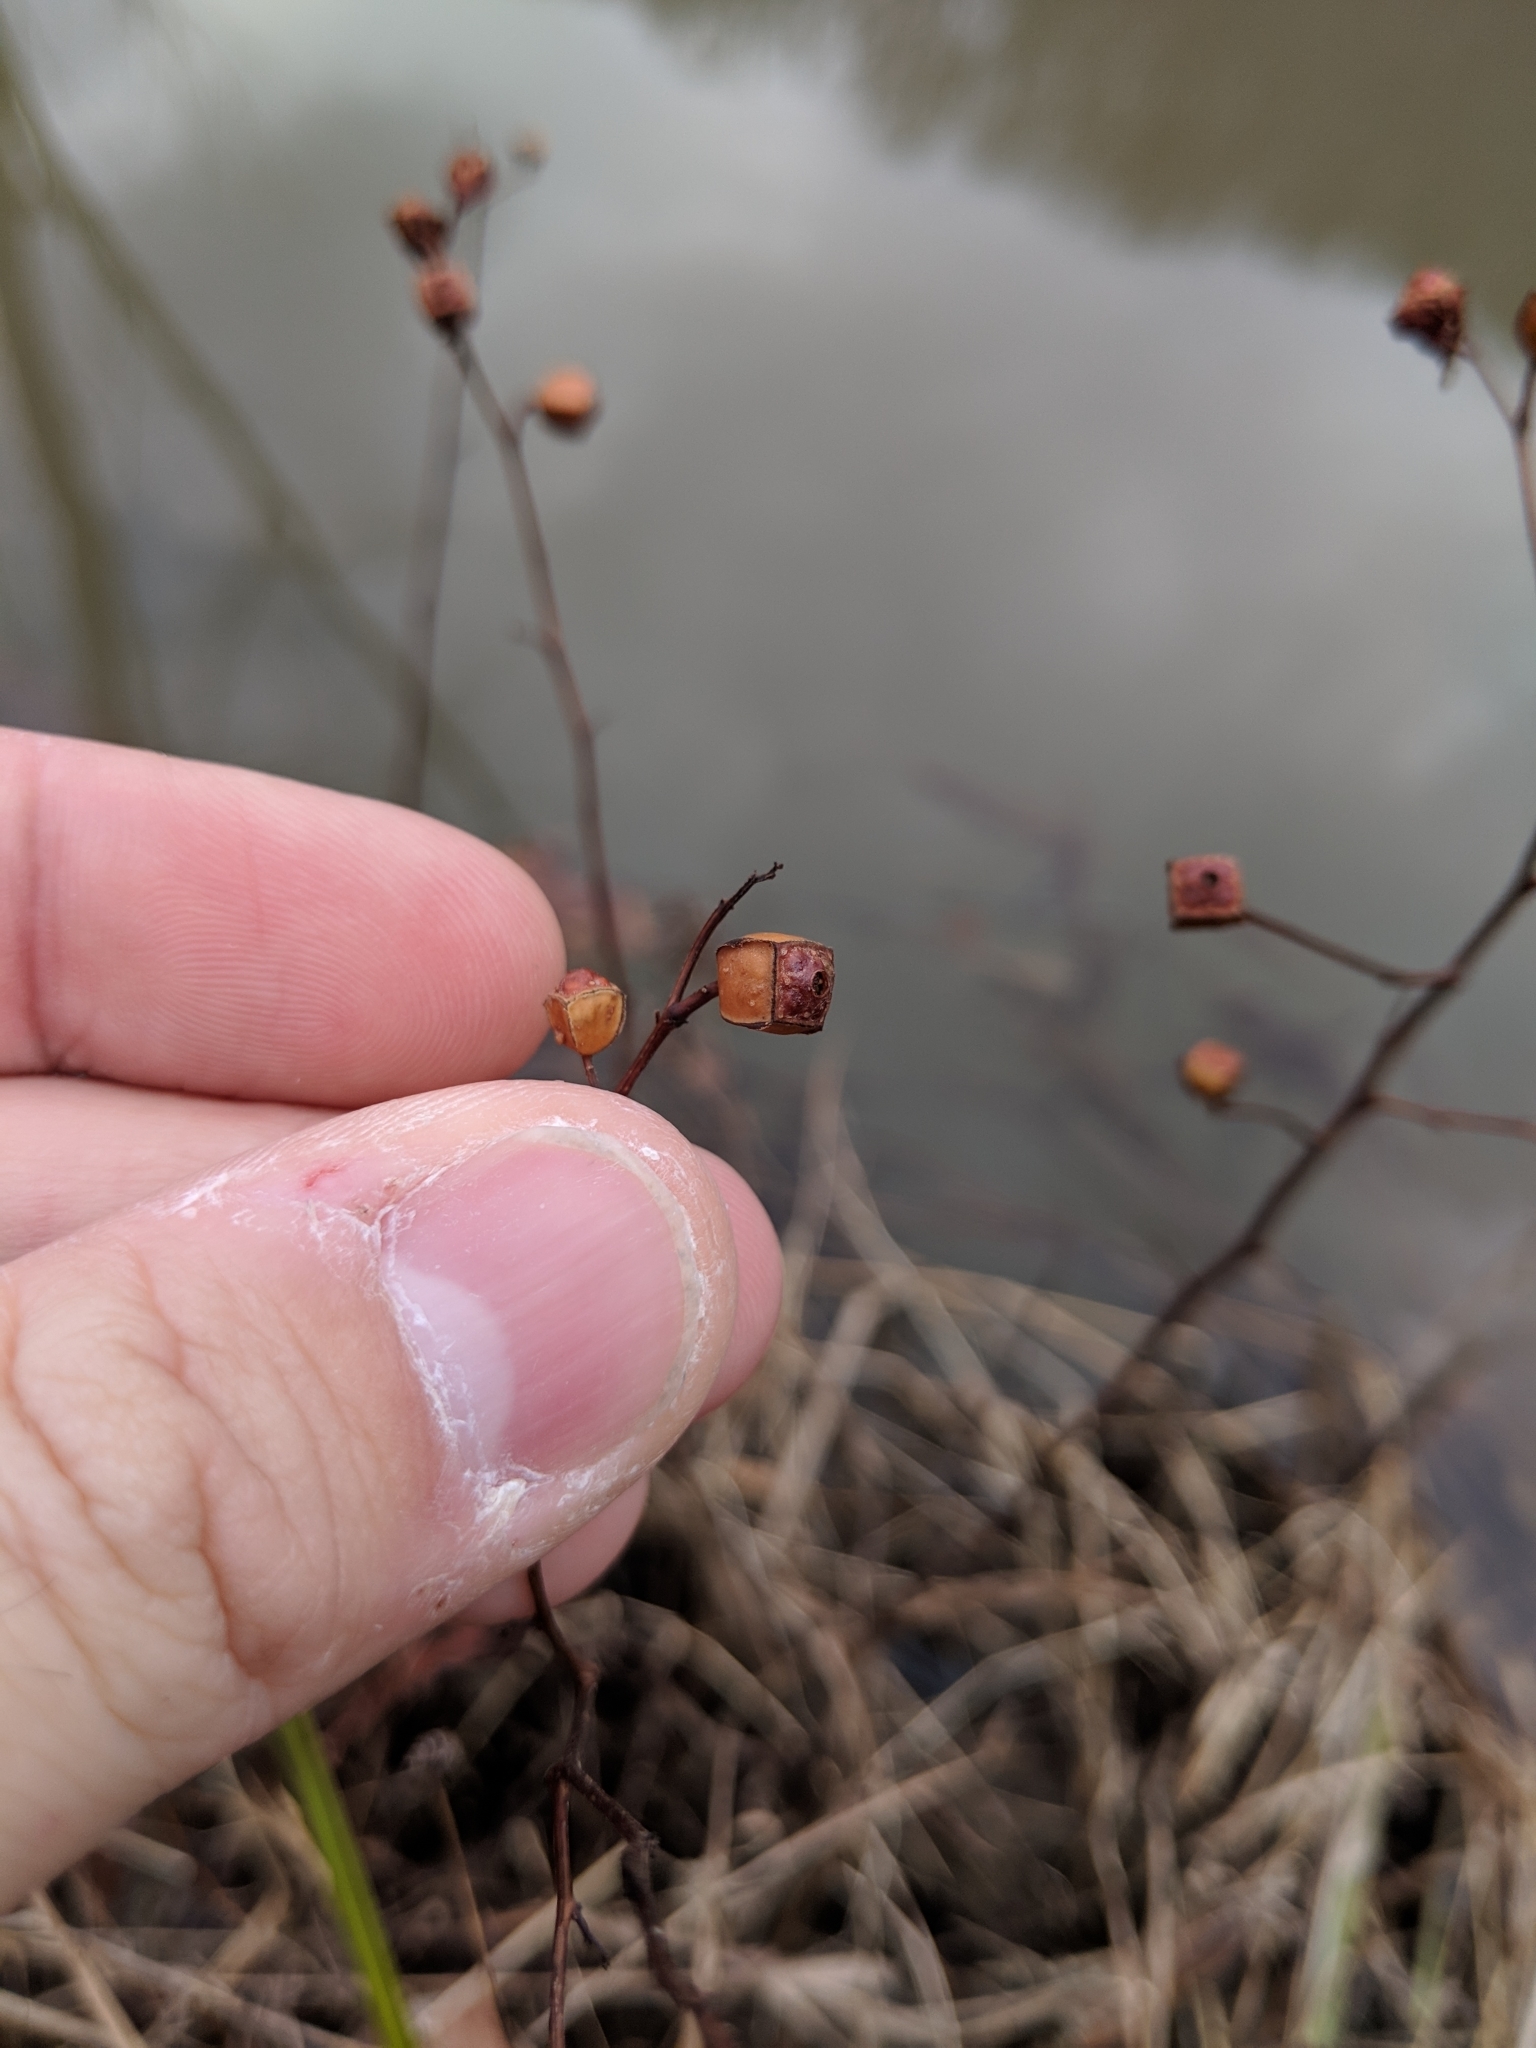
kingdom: Plantae
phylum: Tracheophyta
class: Magnoliopsida
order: Myrtales
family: Onagraceae
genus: Ludwigia
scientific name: Ludwigia alternifolia
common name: Rattlebox
